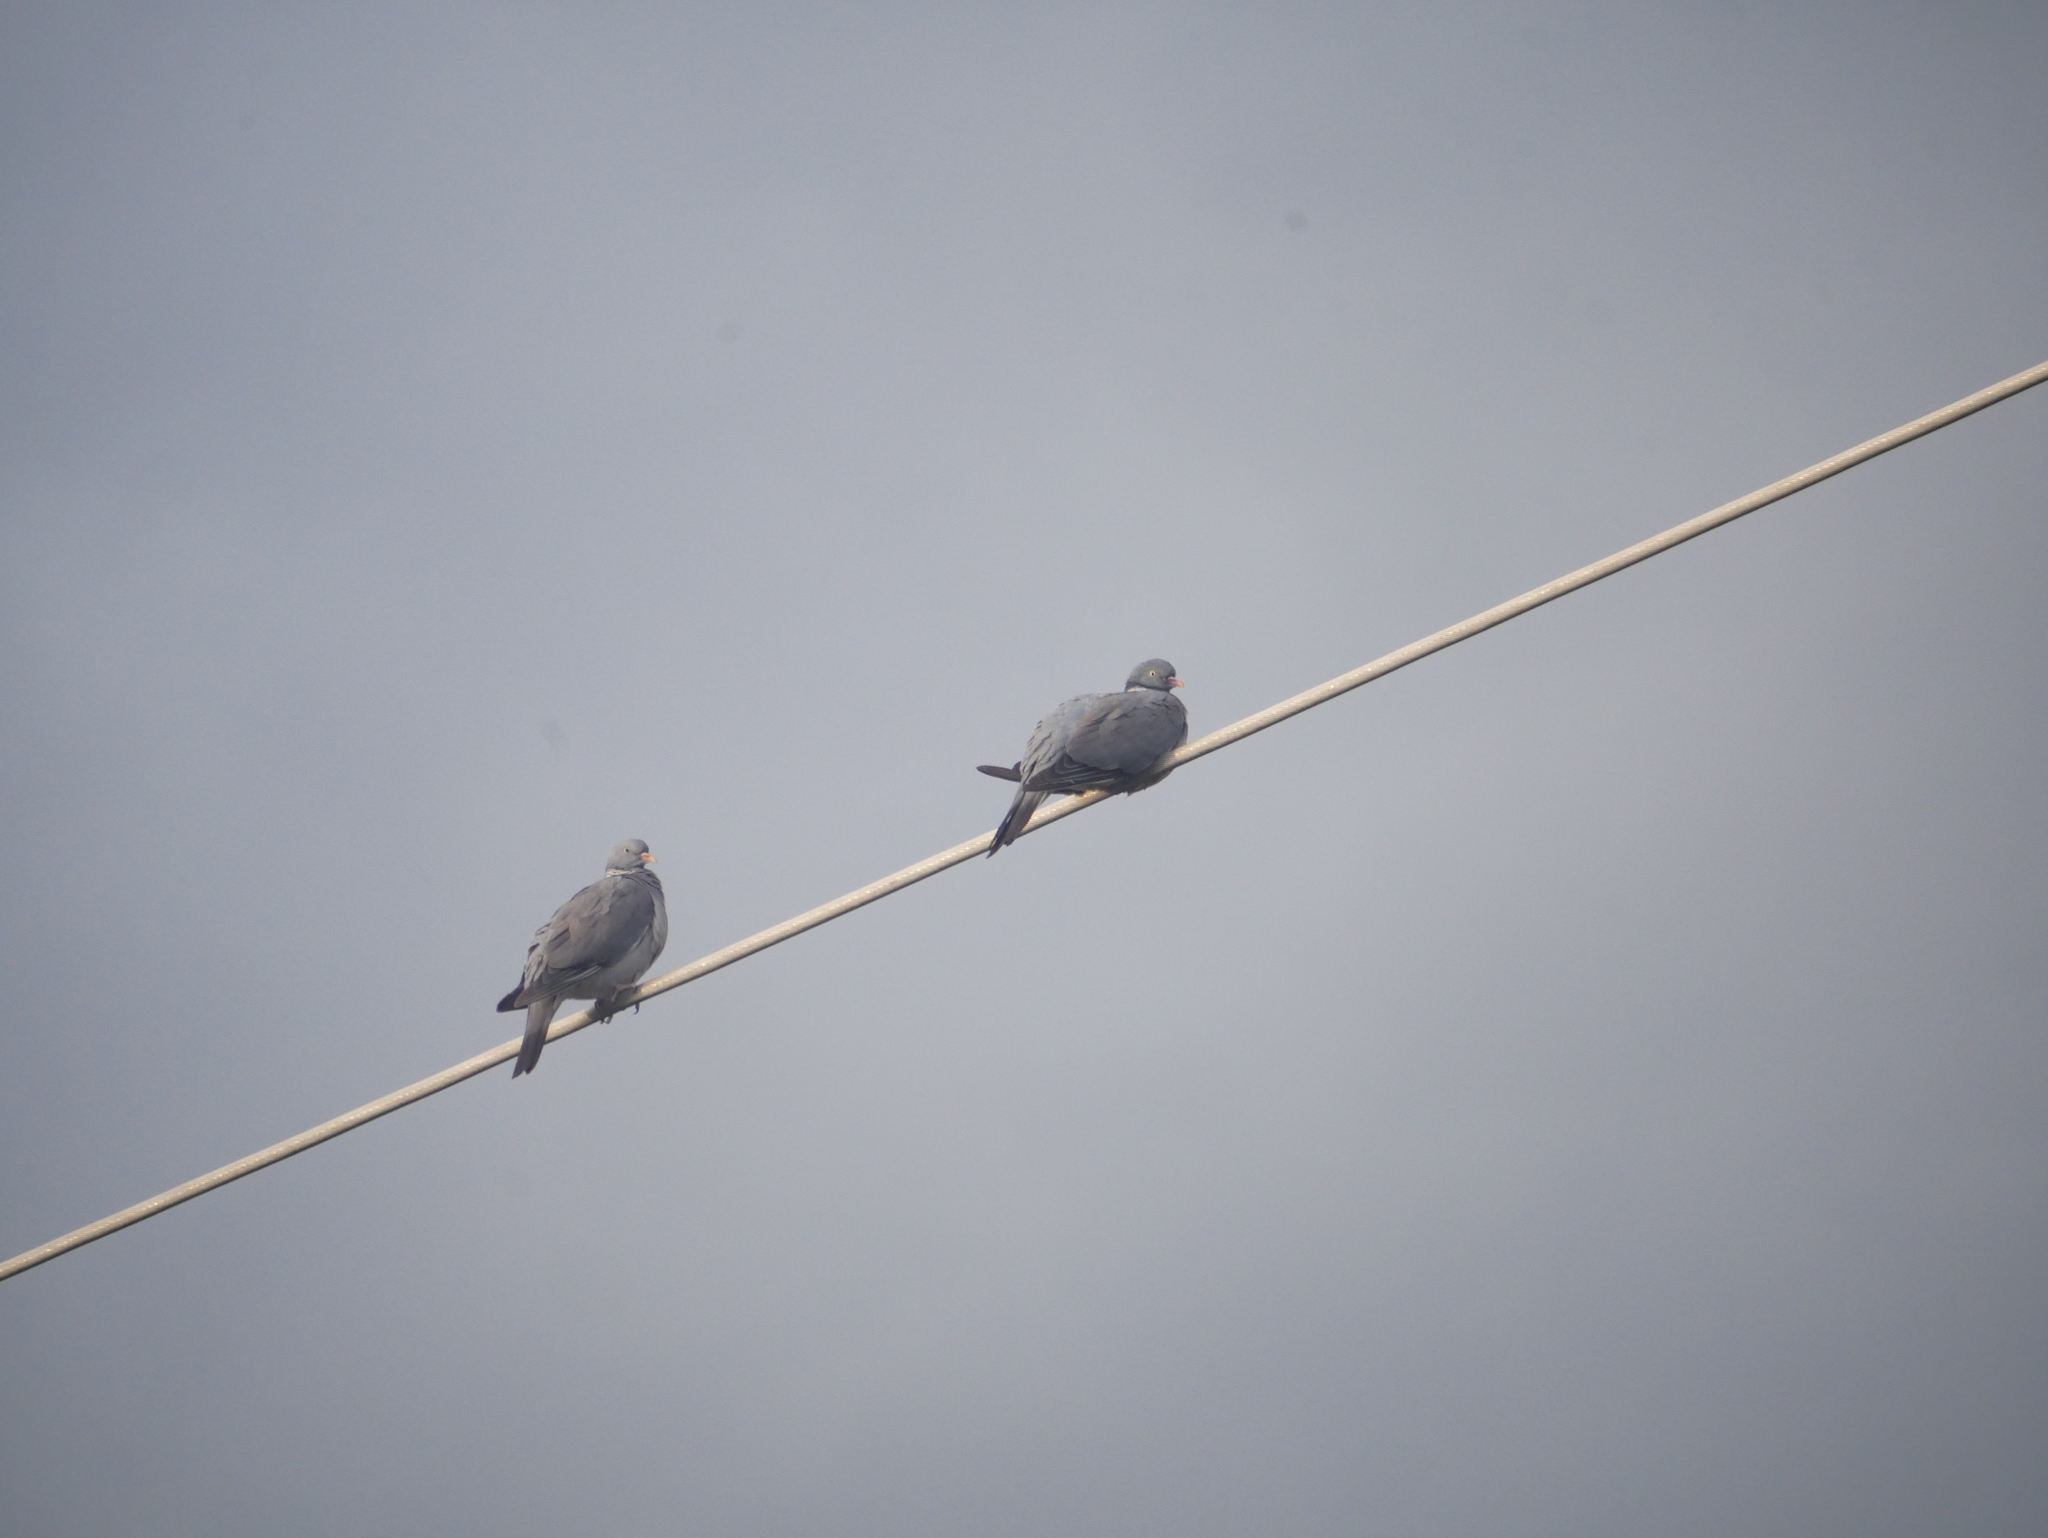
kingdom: Animalia
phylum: Chordata
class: Aves
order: Columbiformes
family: Columbidae
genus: Columba
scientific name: Columba palumbus
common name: Common wood pigeon
